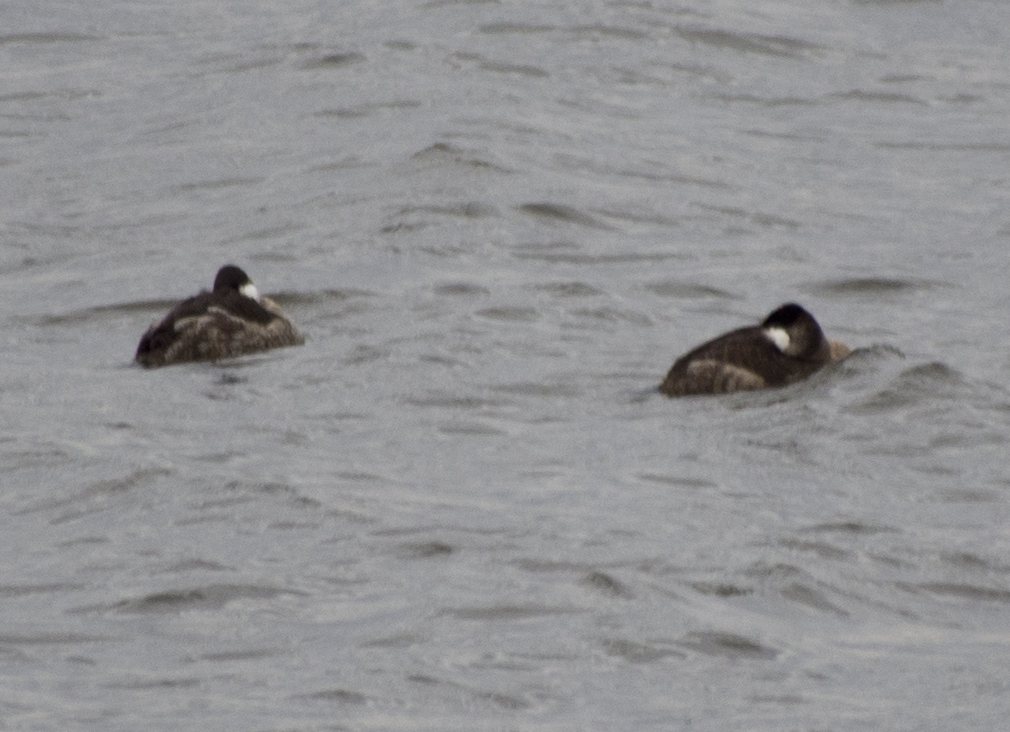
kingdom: Animalia
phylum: Chordata
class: Aves
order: Anseriformes
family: Anatidae
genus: Oxyura
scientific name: Oxyura jamaicensis
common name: Ruddy duck
